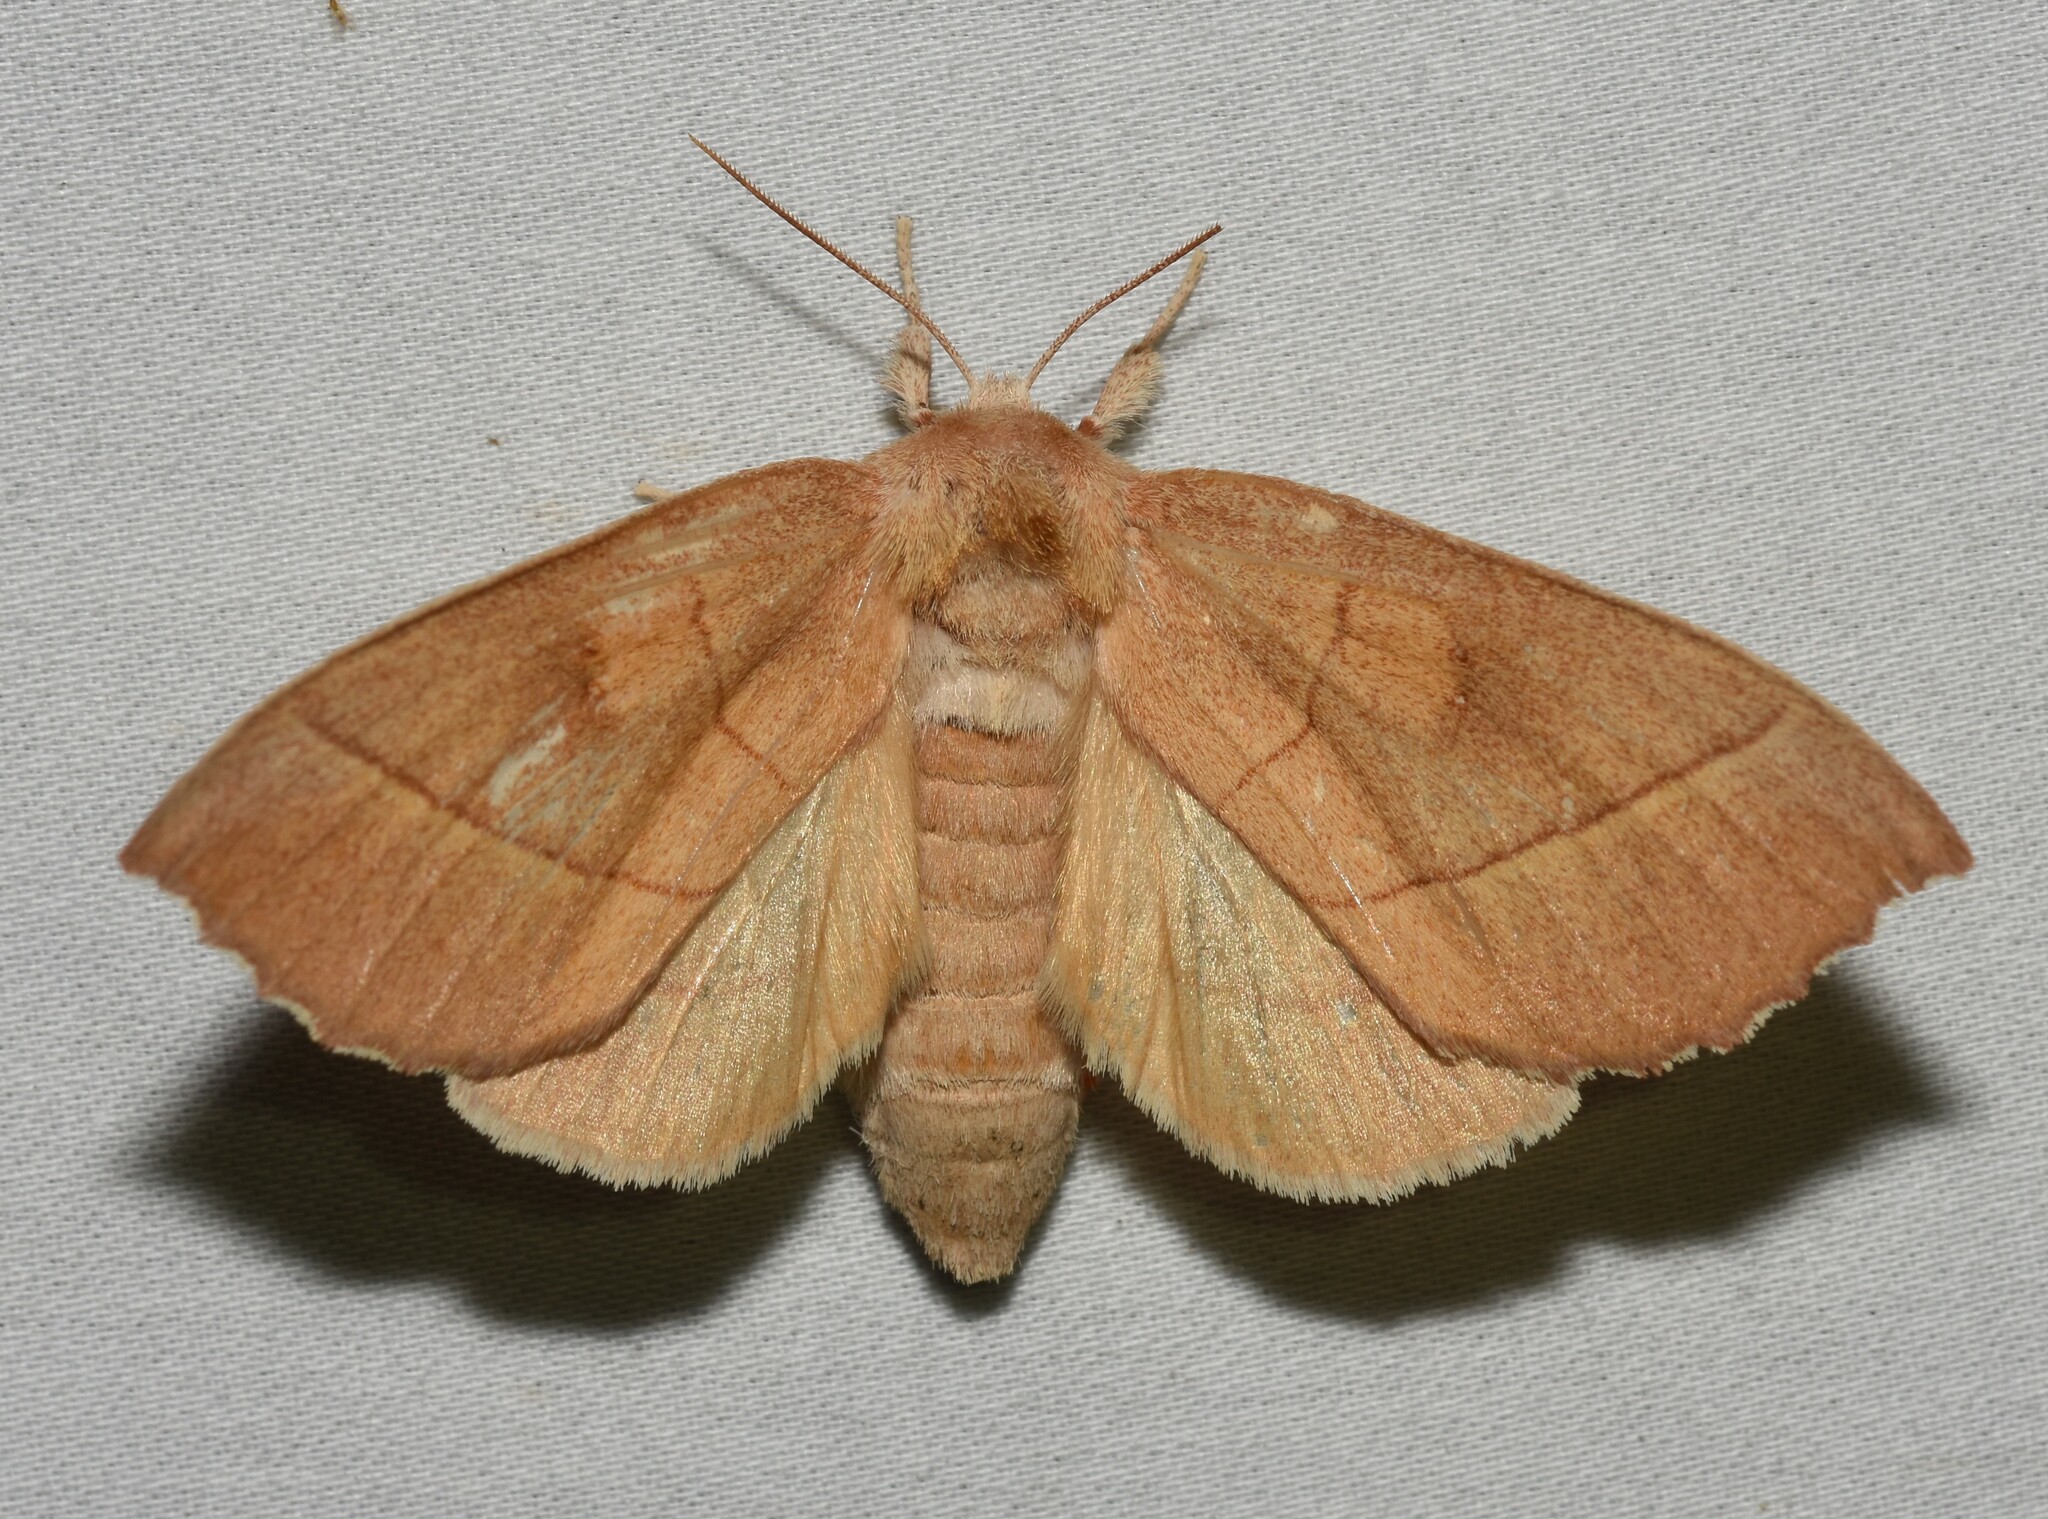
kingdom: Animalia
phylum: Arthropoda
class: Insecta
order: Lepidoptera
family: Notodontidae
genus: Nadata
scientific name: Nadata gibbosa
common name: White-dotted prominent
